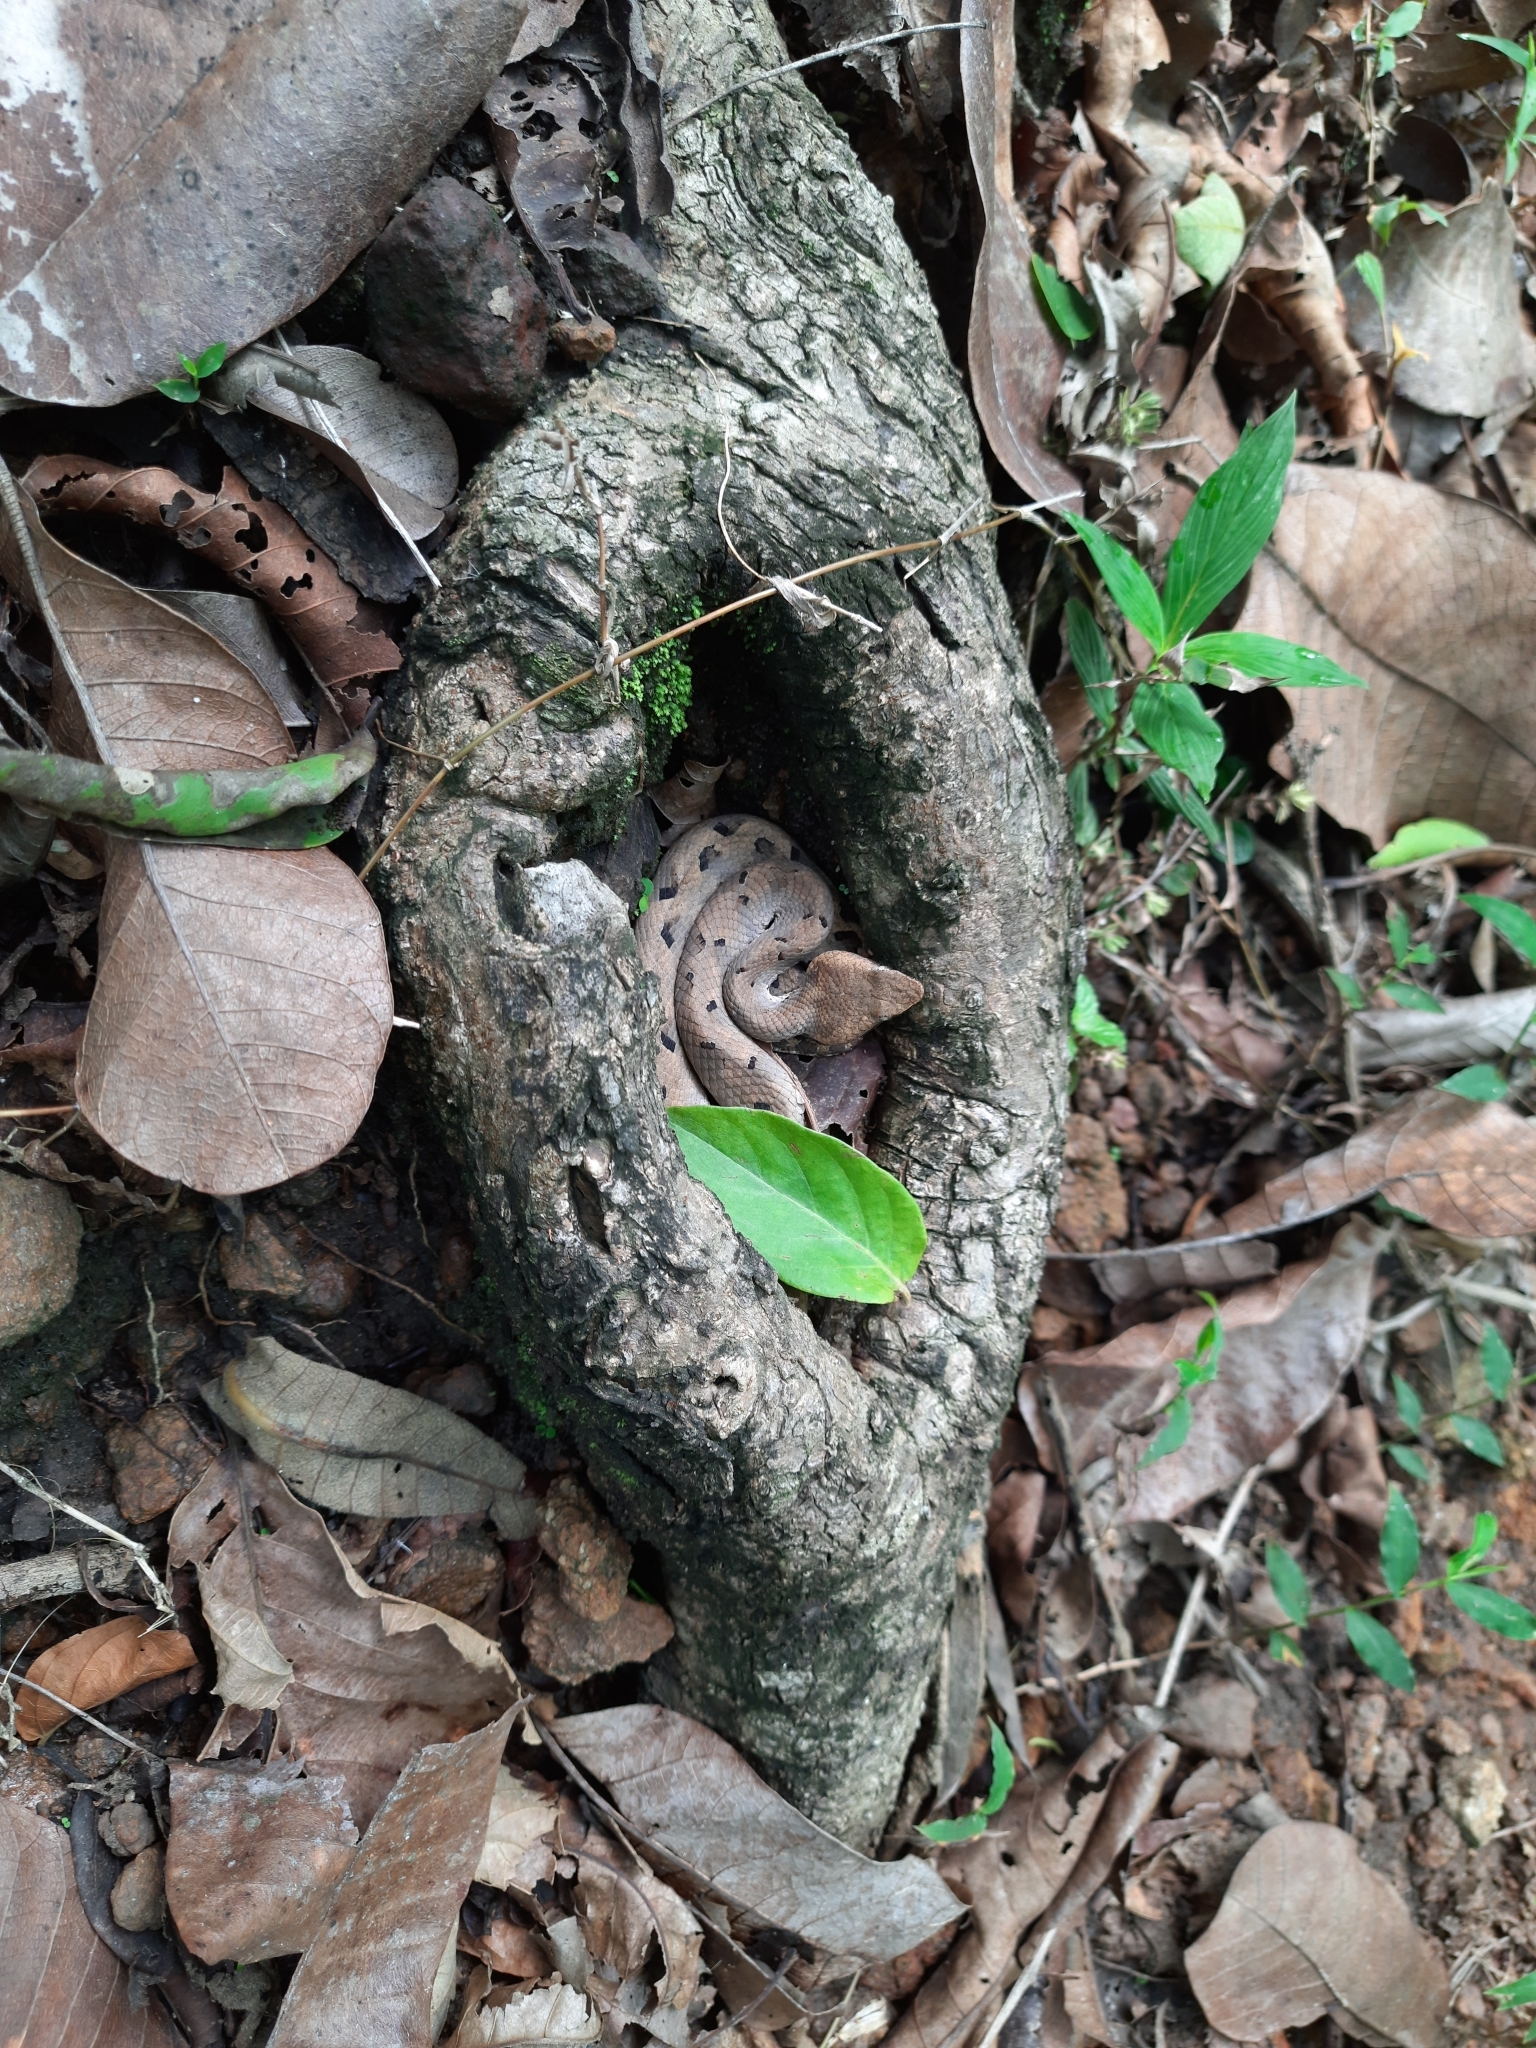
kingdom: Animalia
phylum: Chordata
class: Squamata
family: Viperidae
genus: Hypnale
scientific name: Hypnale hypnale
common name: Hump-nosed moccasin
